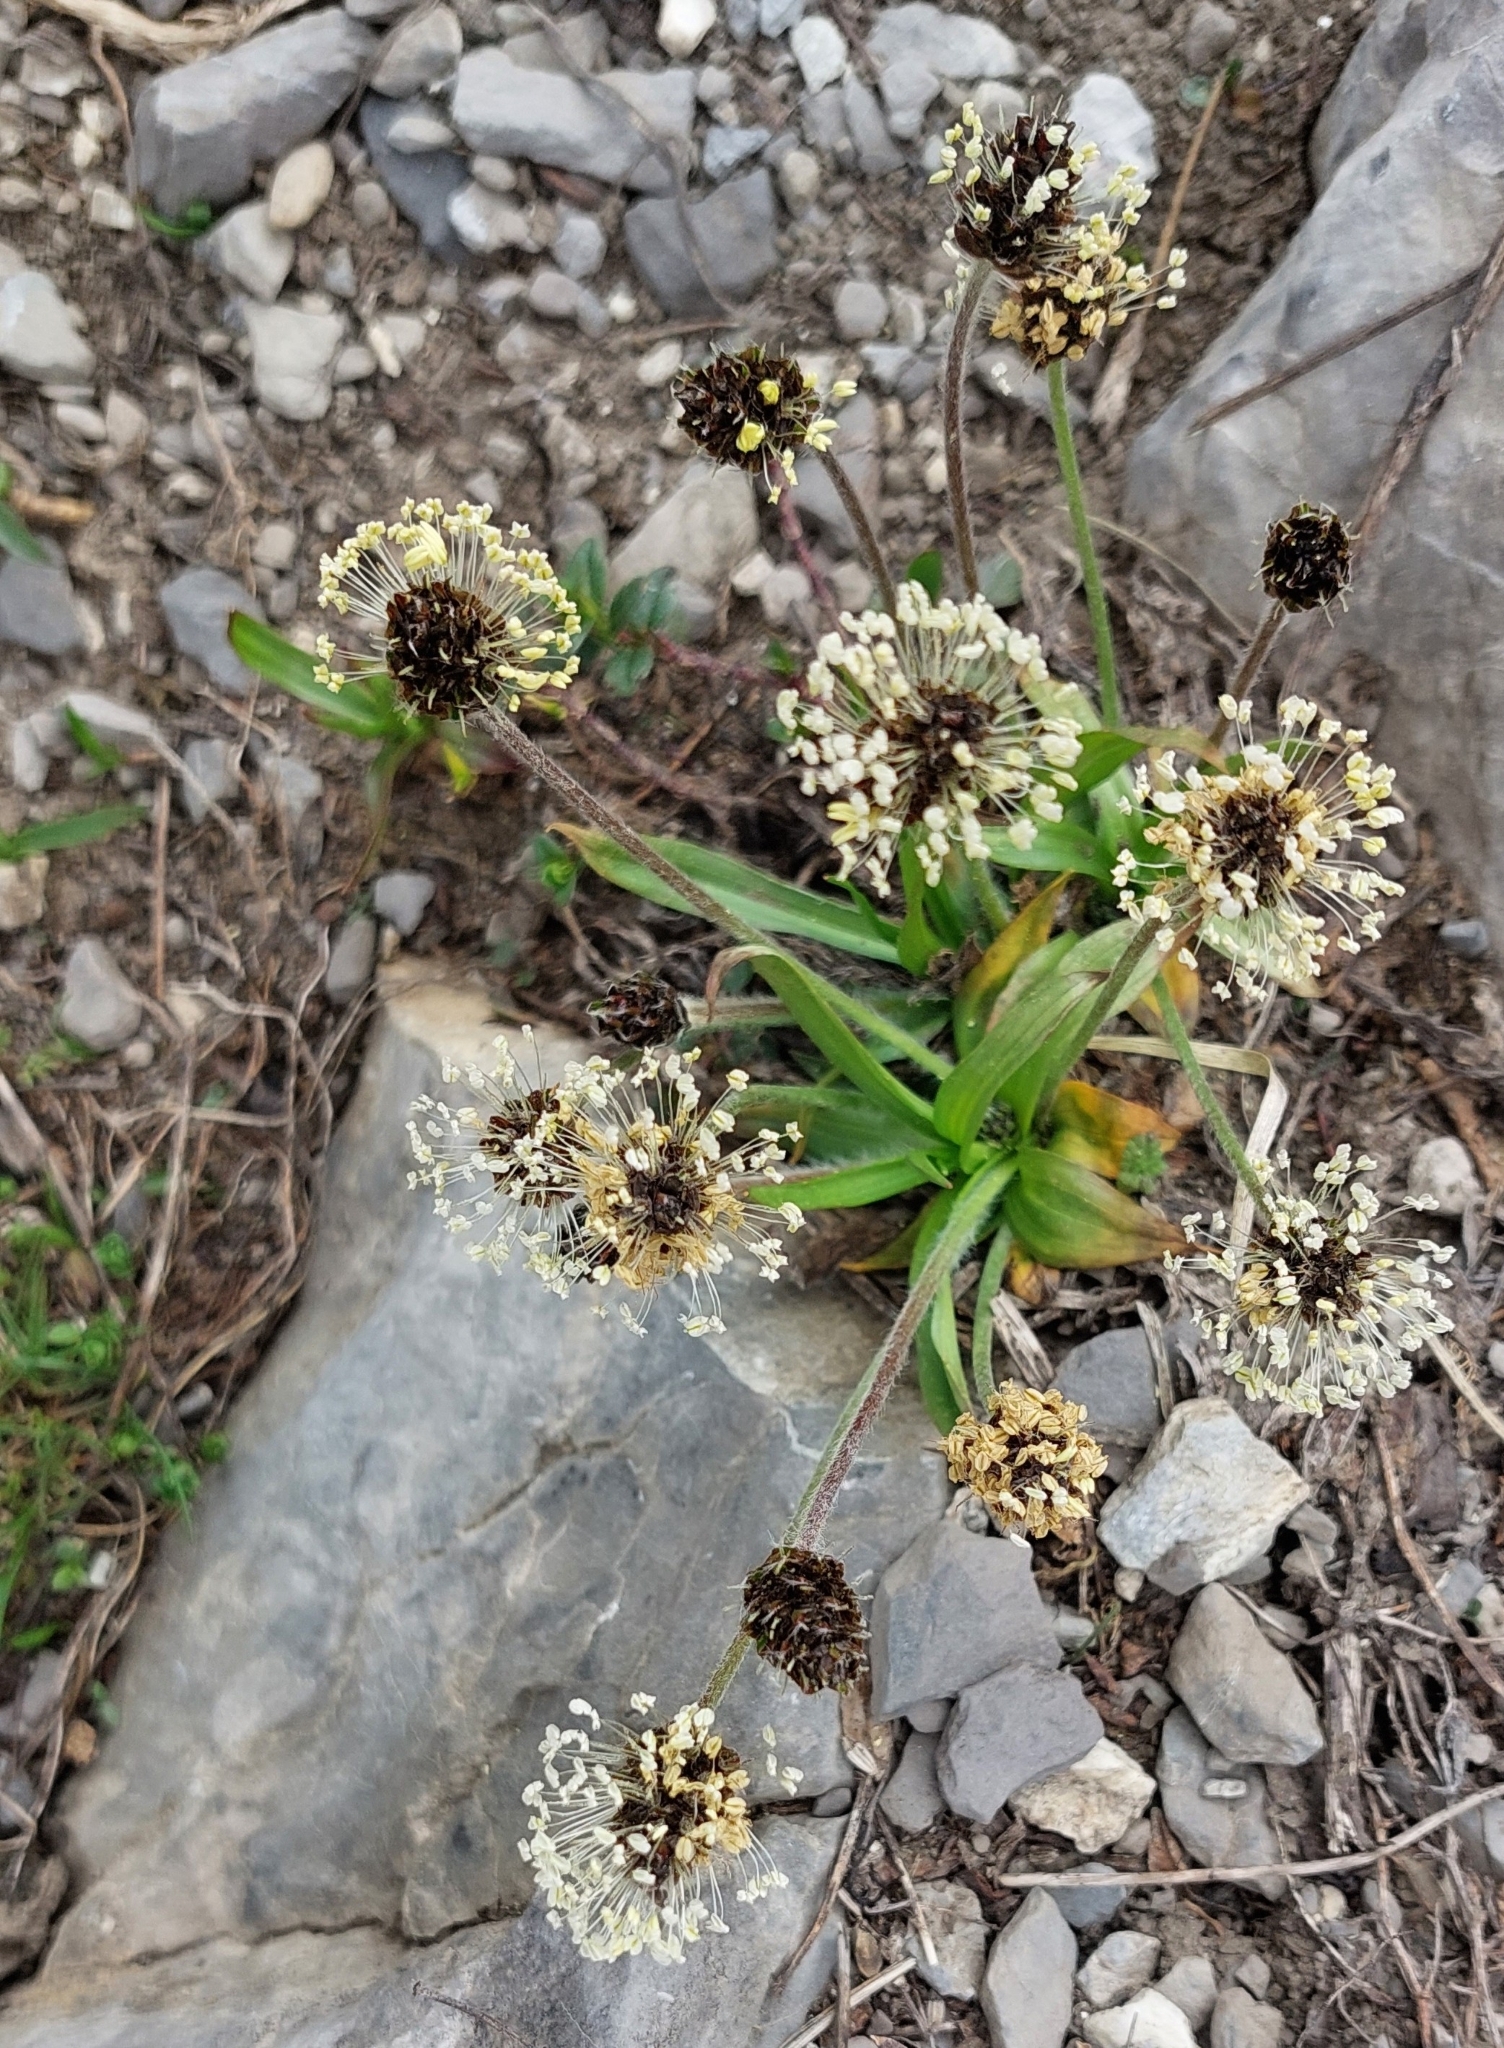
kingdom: Plantae
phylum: Tracheophyta
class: Magnoliopsida
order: Lamiales
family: Plantaginaceae
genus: Plantago
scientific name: Plantago atrata
